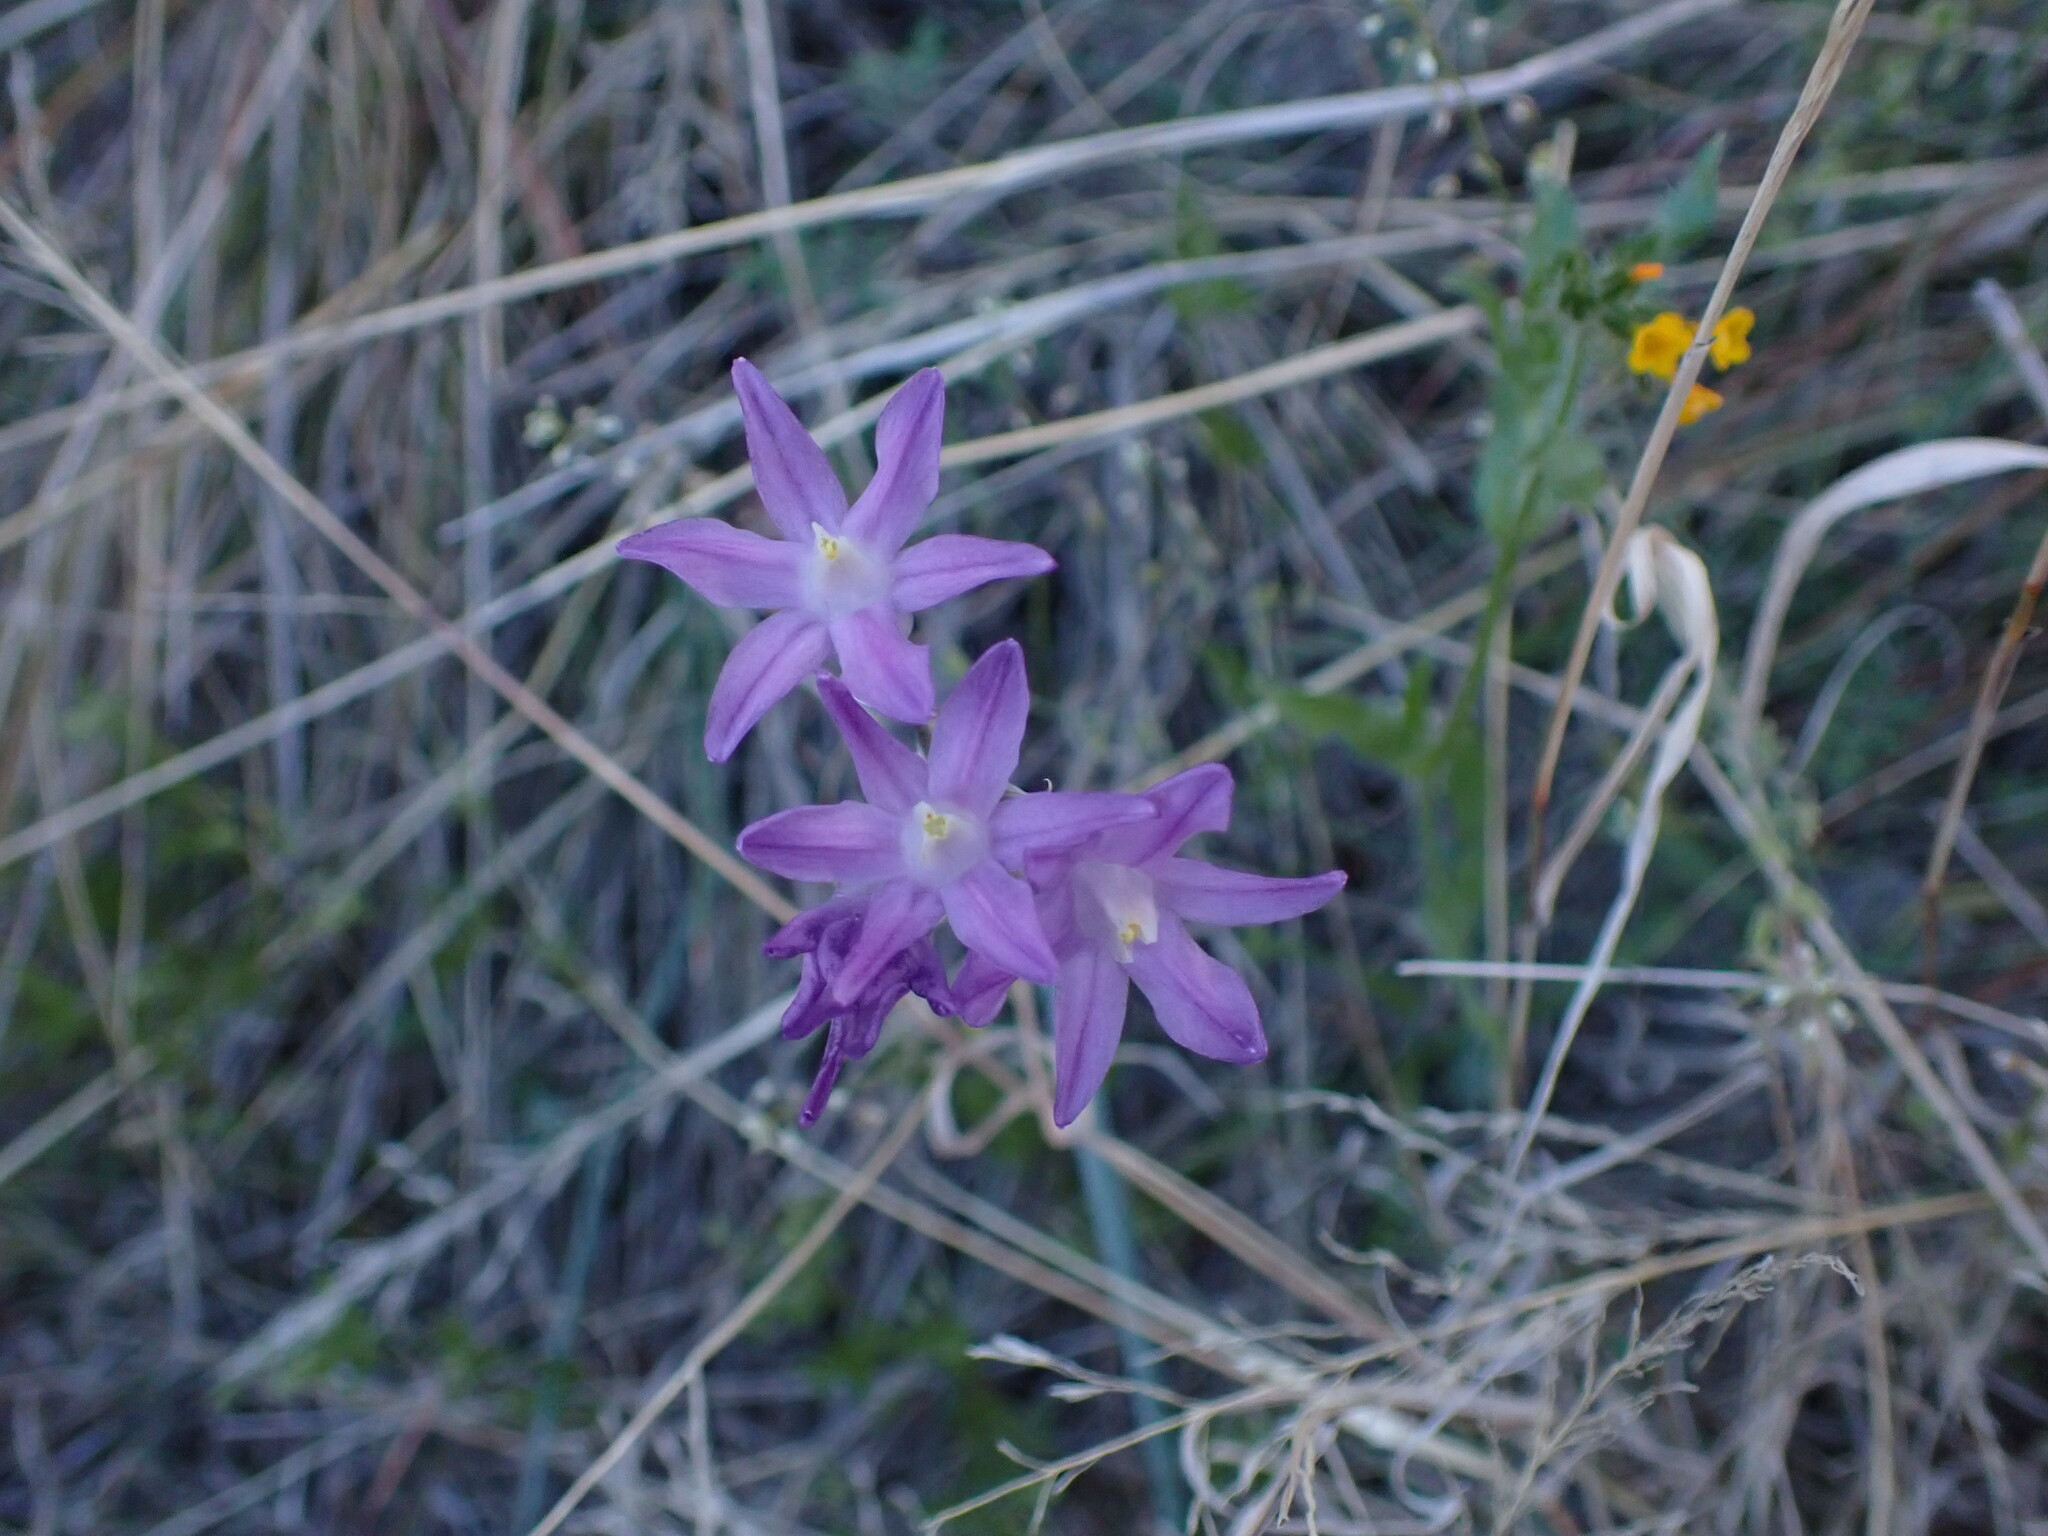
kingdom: Plantae
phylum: Tracheophyta
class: Liliopsida
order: Asparagales
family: Asparagaceae
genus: Dipterostemon
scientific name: Dipterostemon capitatus
